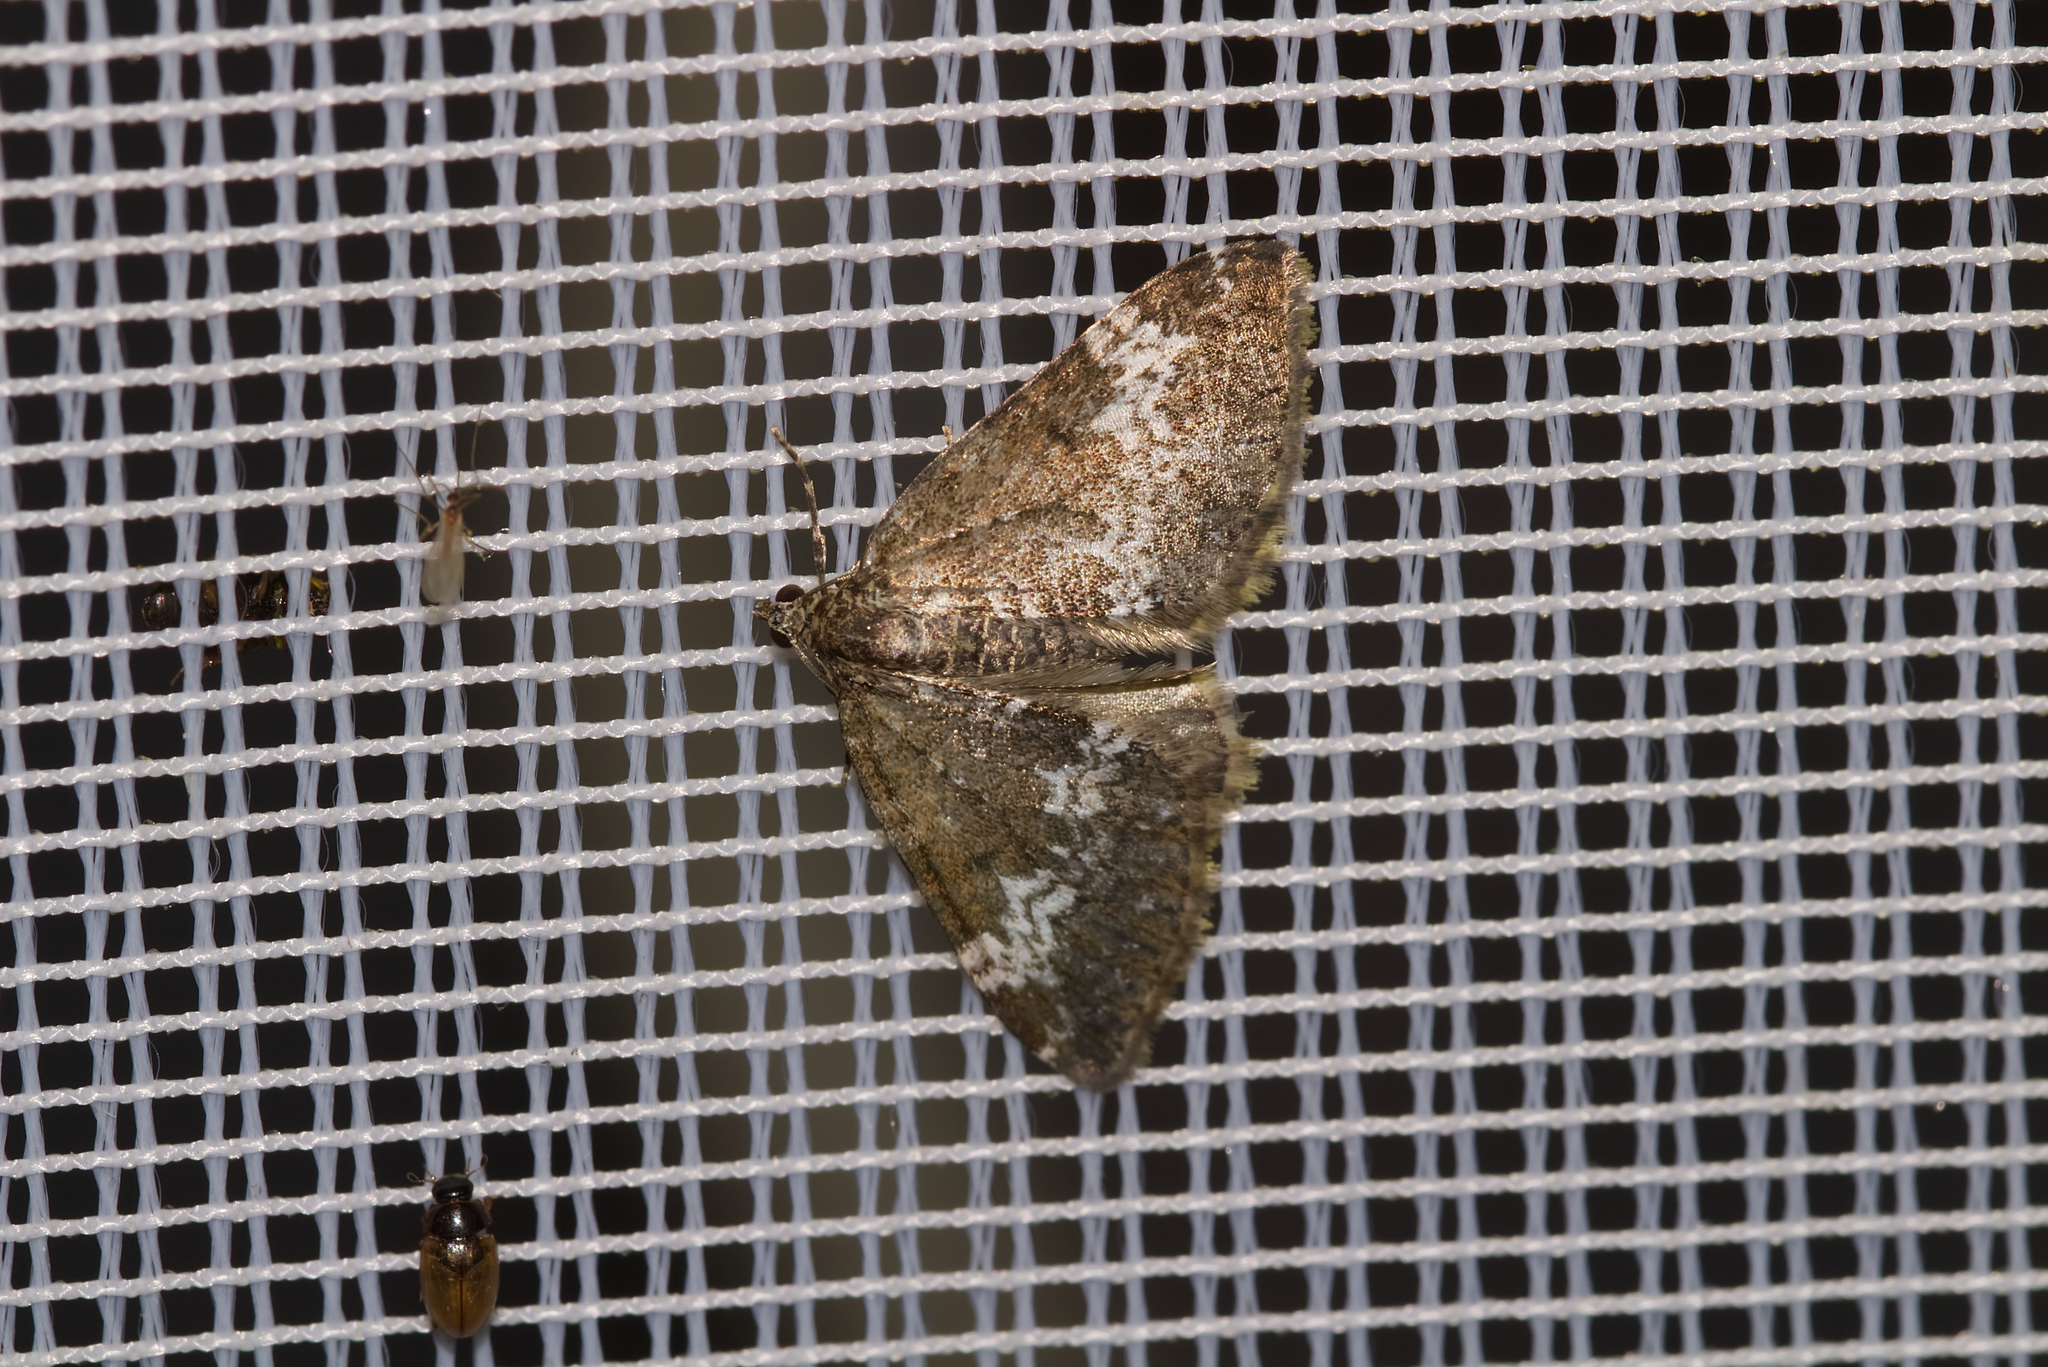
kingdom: Animalia
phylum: Arthropoda
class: Insecta
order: Lepidoptera
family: Geometridae
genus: Perizoma
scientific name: Perizoma alchemillata
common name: Small rivulet
